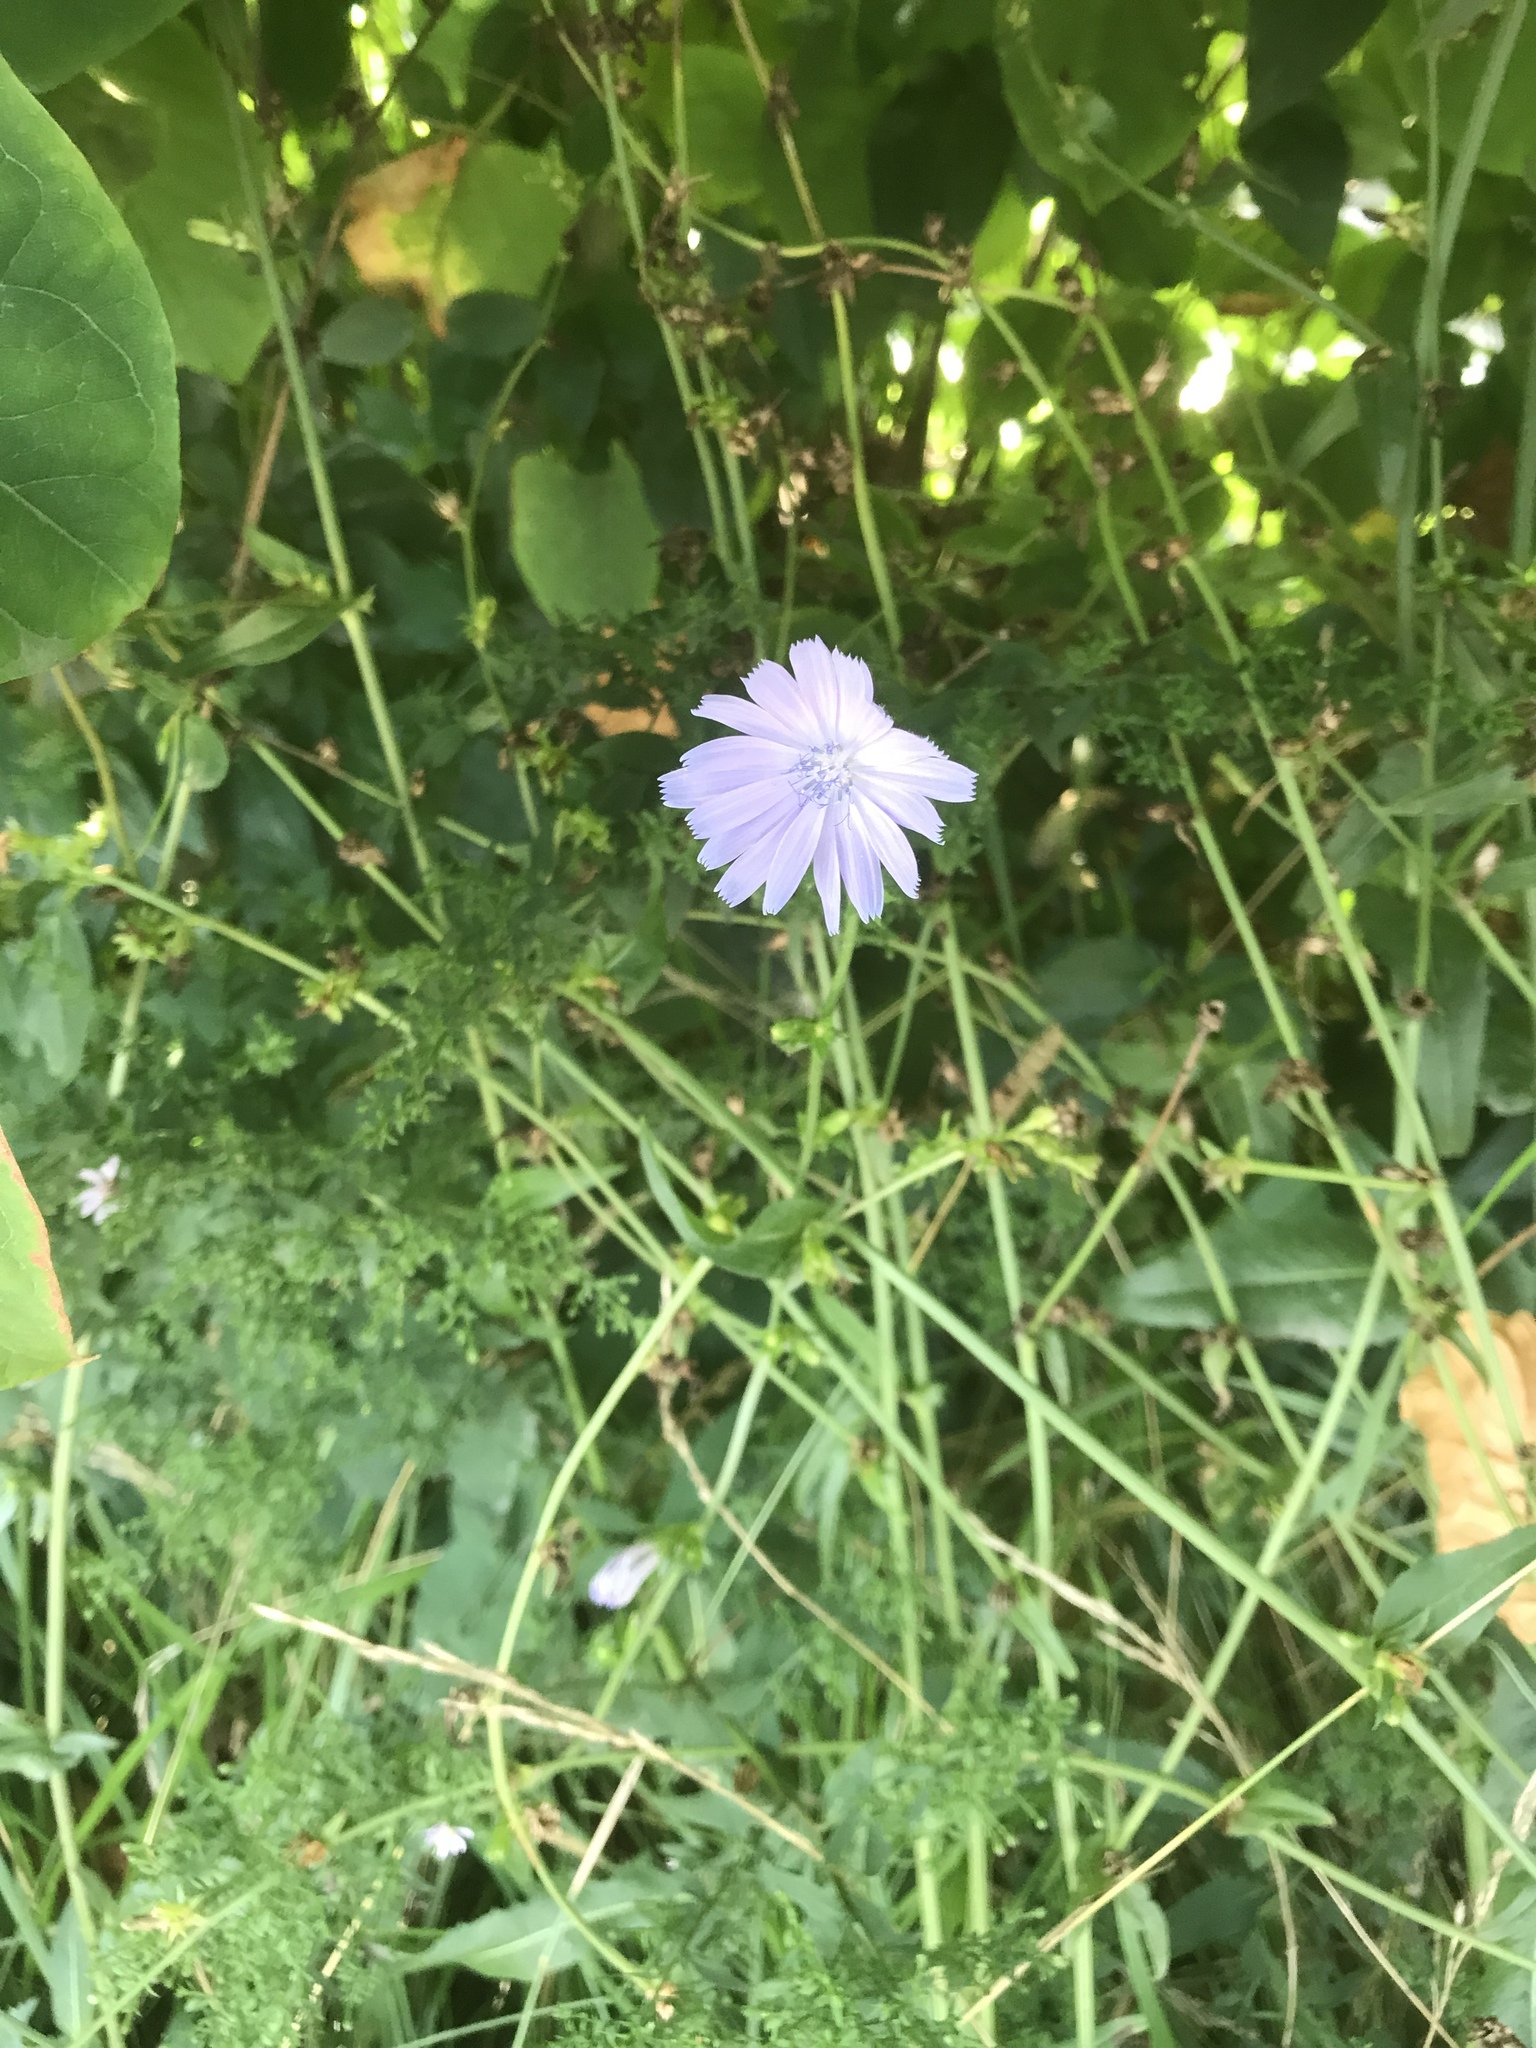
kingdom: Plantae
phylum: Tracheophyta
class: Magnoliopsida
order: Asterales
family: Asteraceae
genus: Cichorium
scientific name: Cichorium intybus
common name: Chicory
